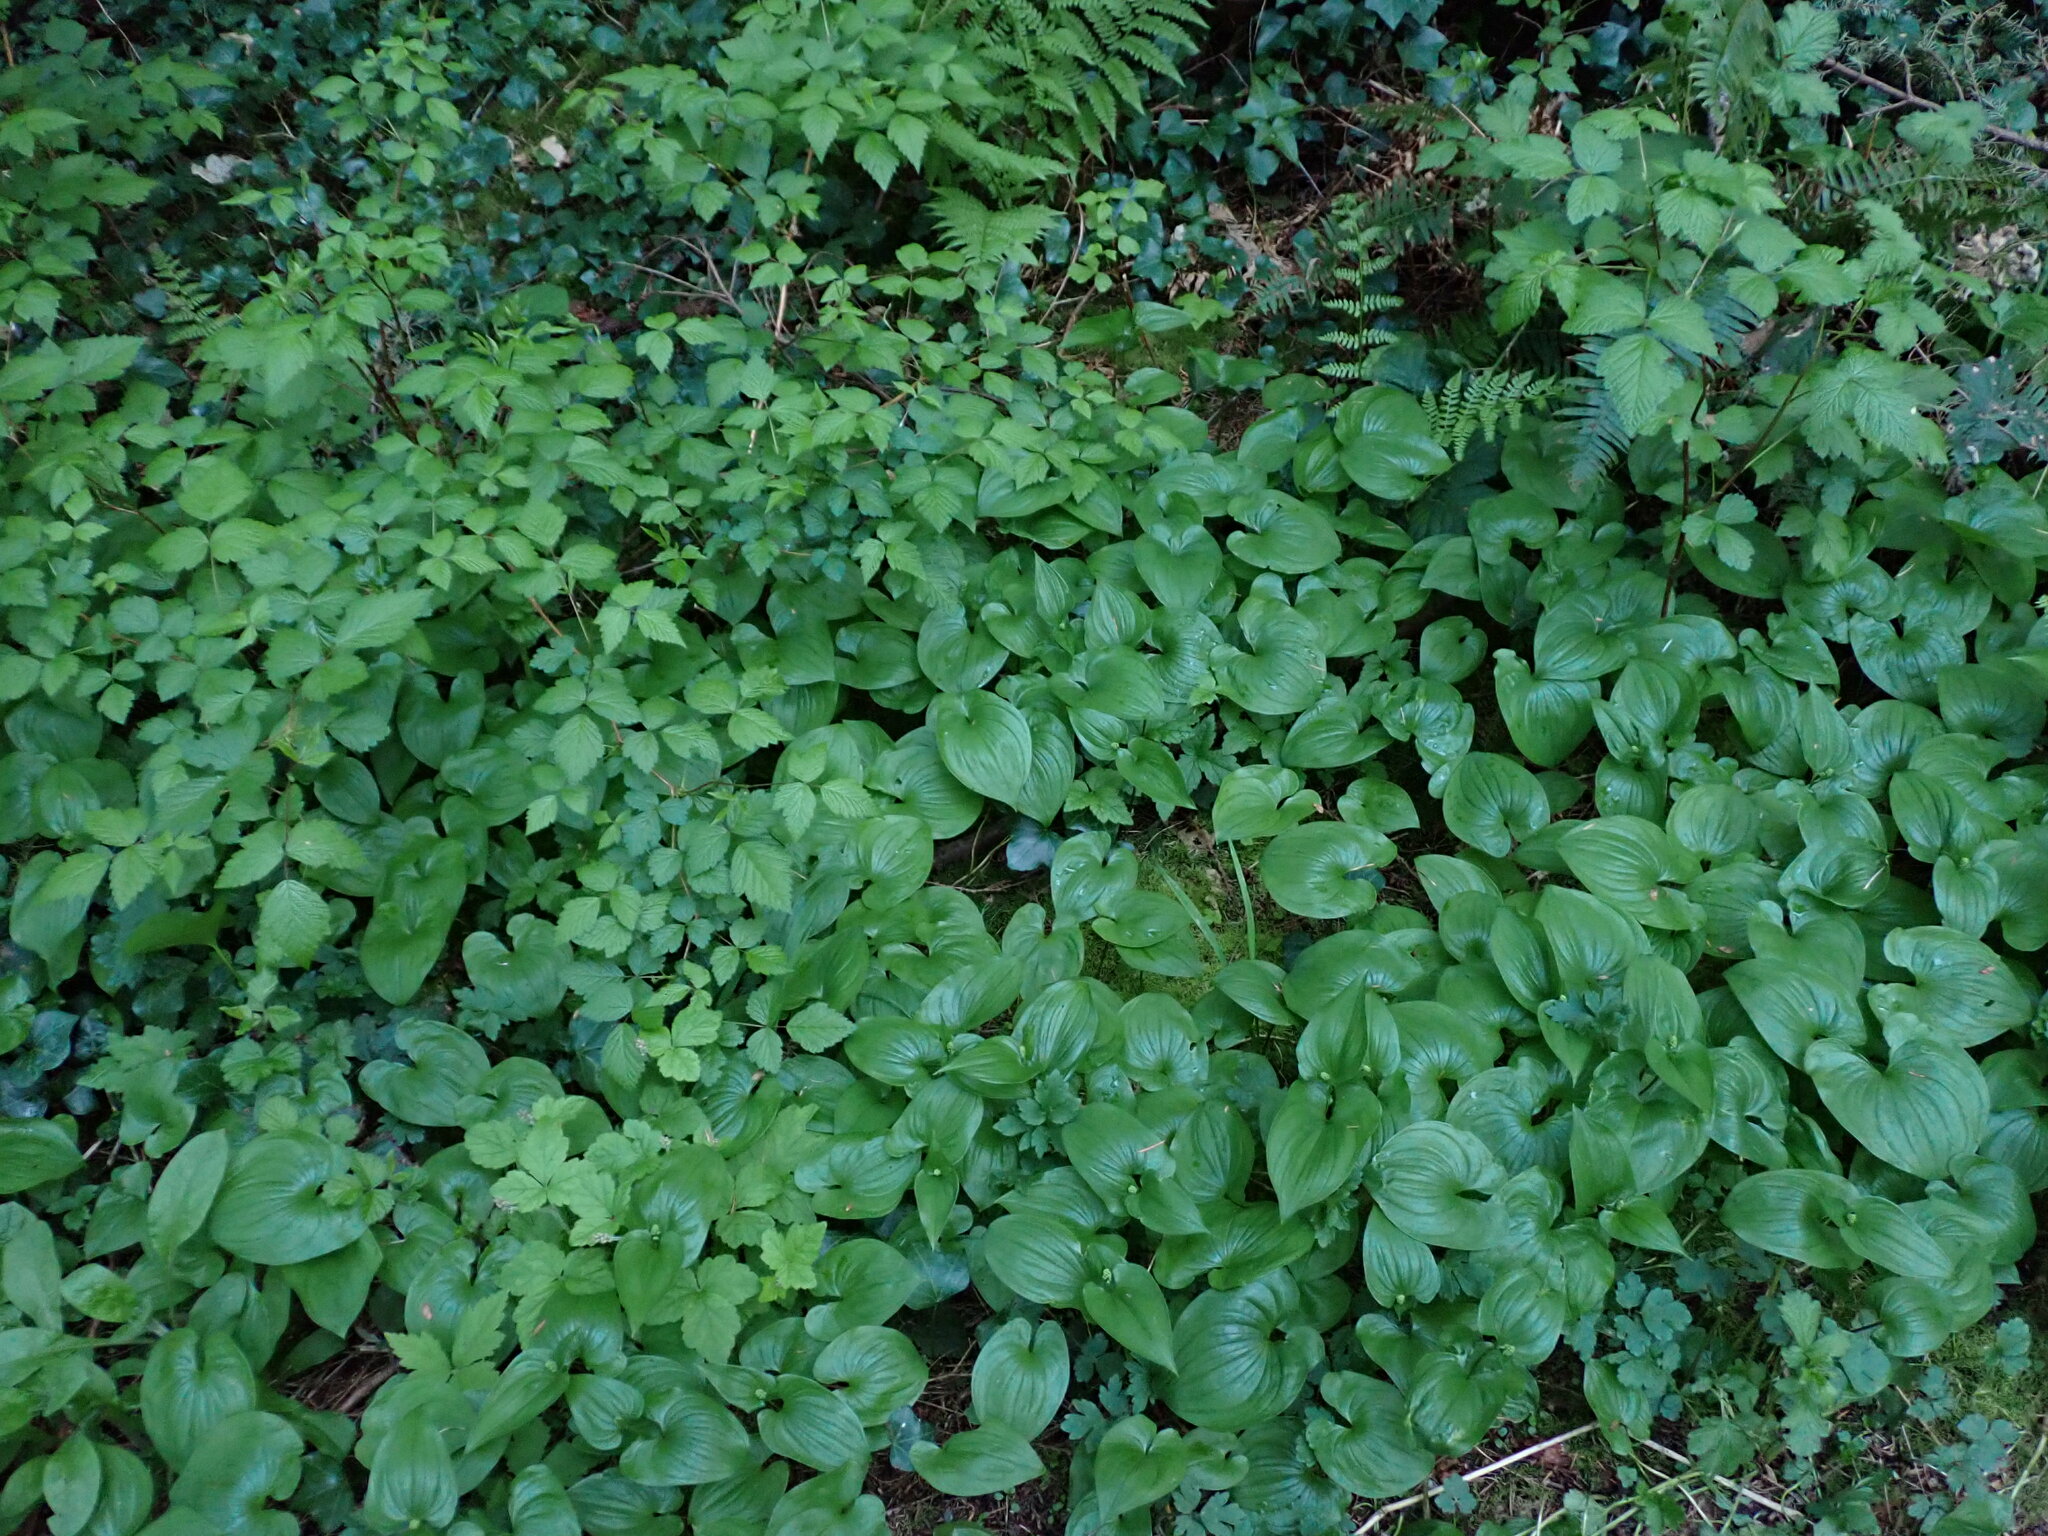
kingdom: Plantae
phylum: Tracheophyta
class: Liliopsida
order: Asparagales
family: Asparagaceae
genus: Maianthemum
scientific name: Maianthemum dilatatum
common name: False lily-of-the-valley
